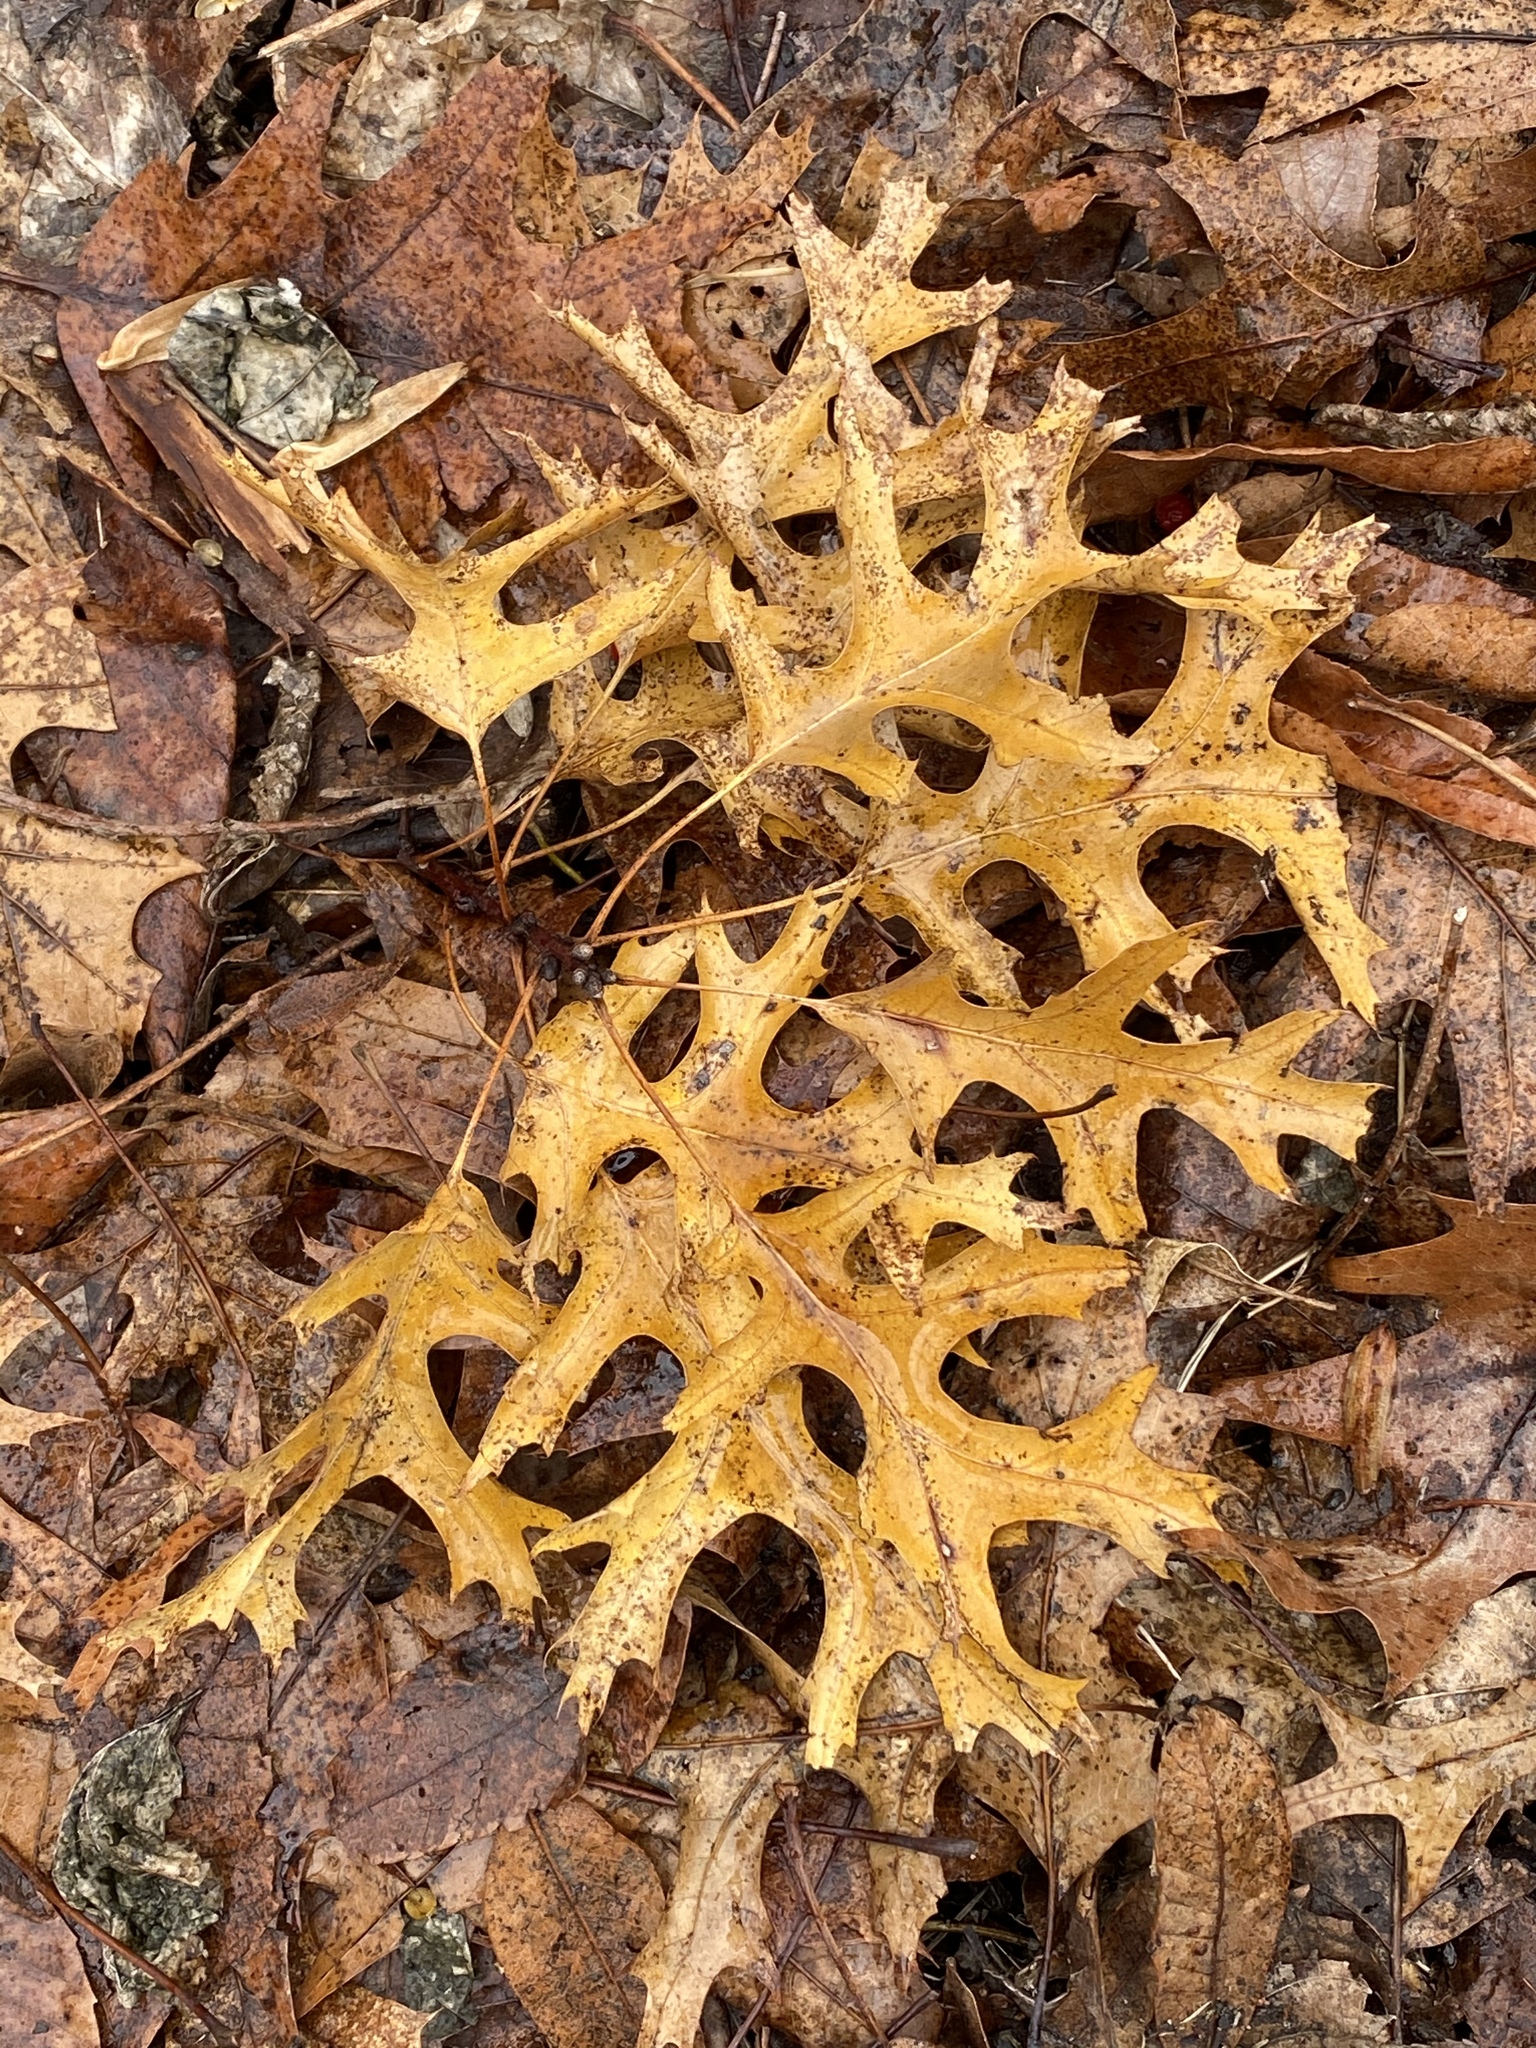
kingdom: Plantae
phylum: Tracheophyta
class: Magnoliopsida
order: Fagales
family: Fagaceae
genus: Quercus
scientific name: Quercus coccinea
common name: Scarlet oak
